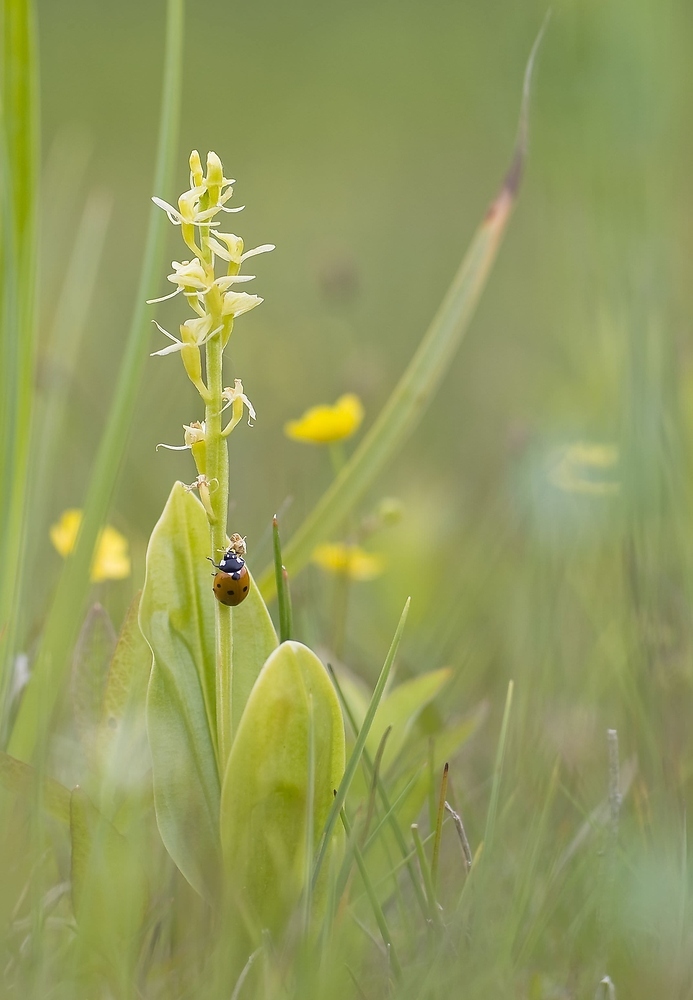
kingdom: Animalia
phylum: Arthropoda
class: Insecta
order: Coleoptera
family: Coccinellidae
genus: Coccinella
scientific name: Coccinella septempunctata
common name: Sevenspotted lady beetle
